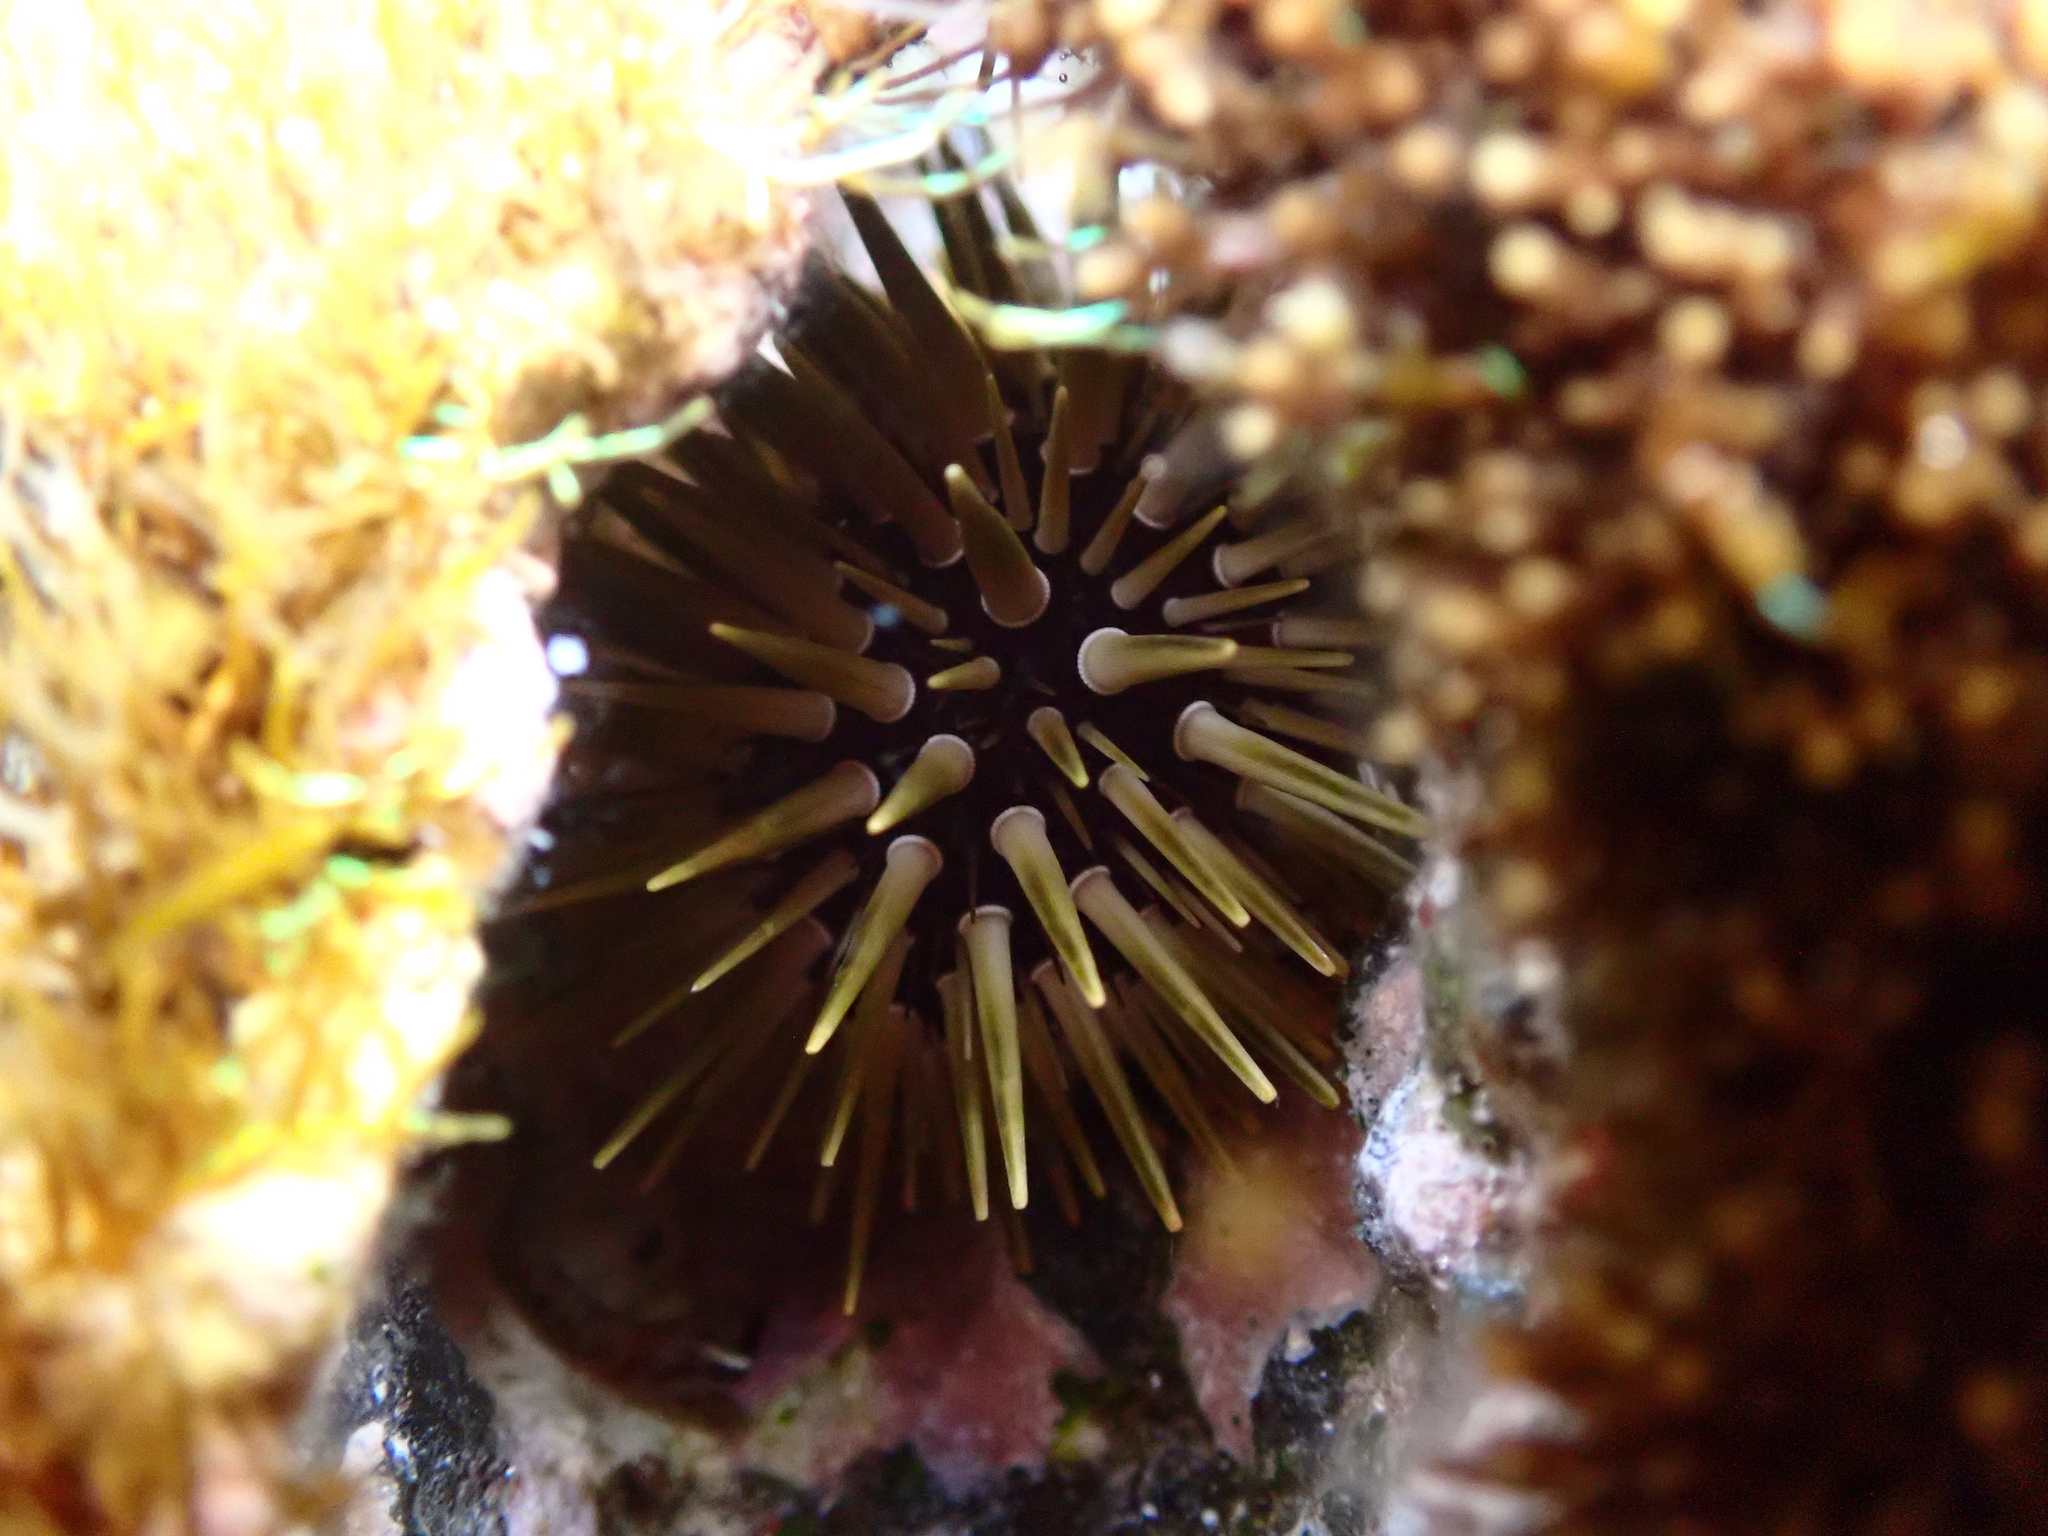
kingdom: Animalia
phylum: Echinodermata
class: Echinoidea
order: Camarodonta
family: Echinometridae
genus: Echinometra
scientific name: Echinometra mathaei
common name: Rock-boring urchin
